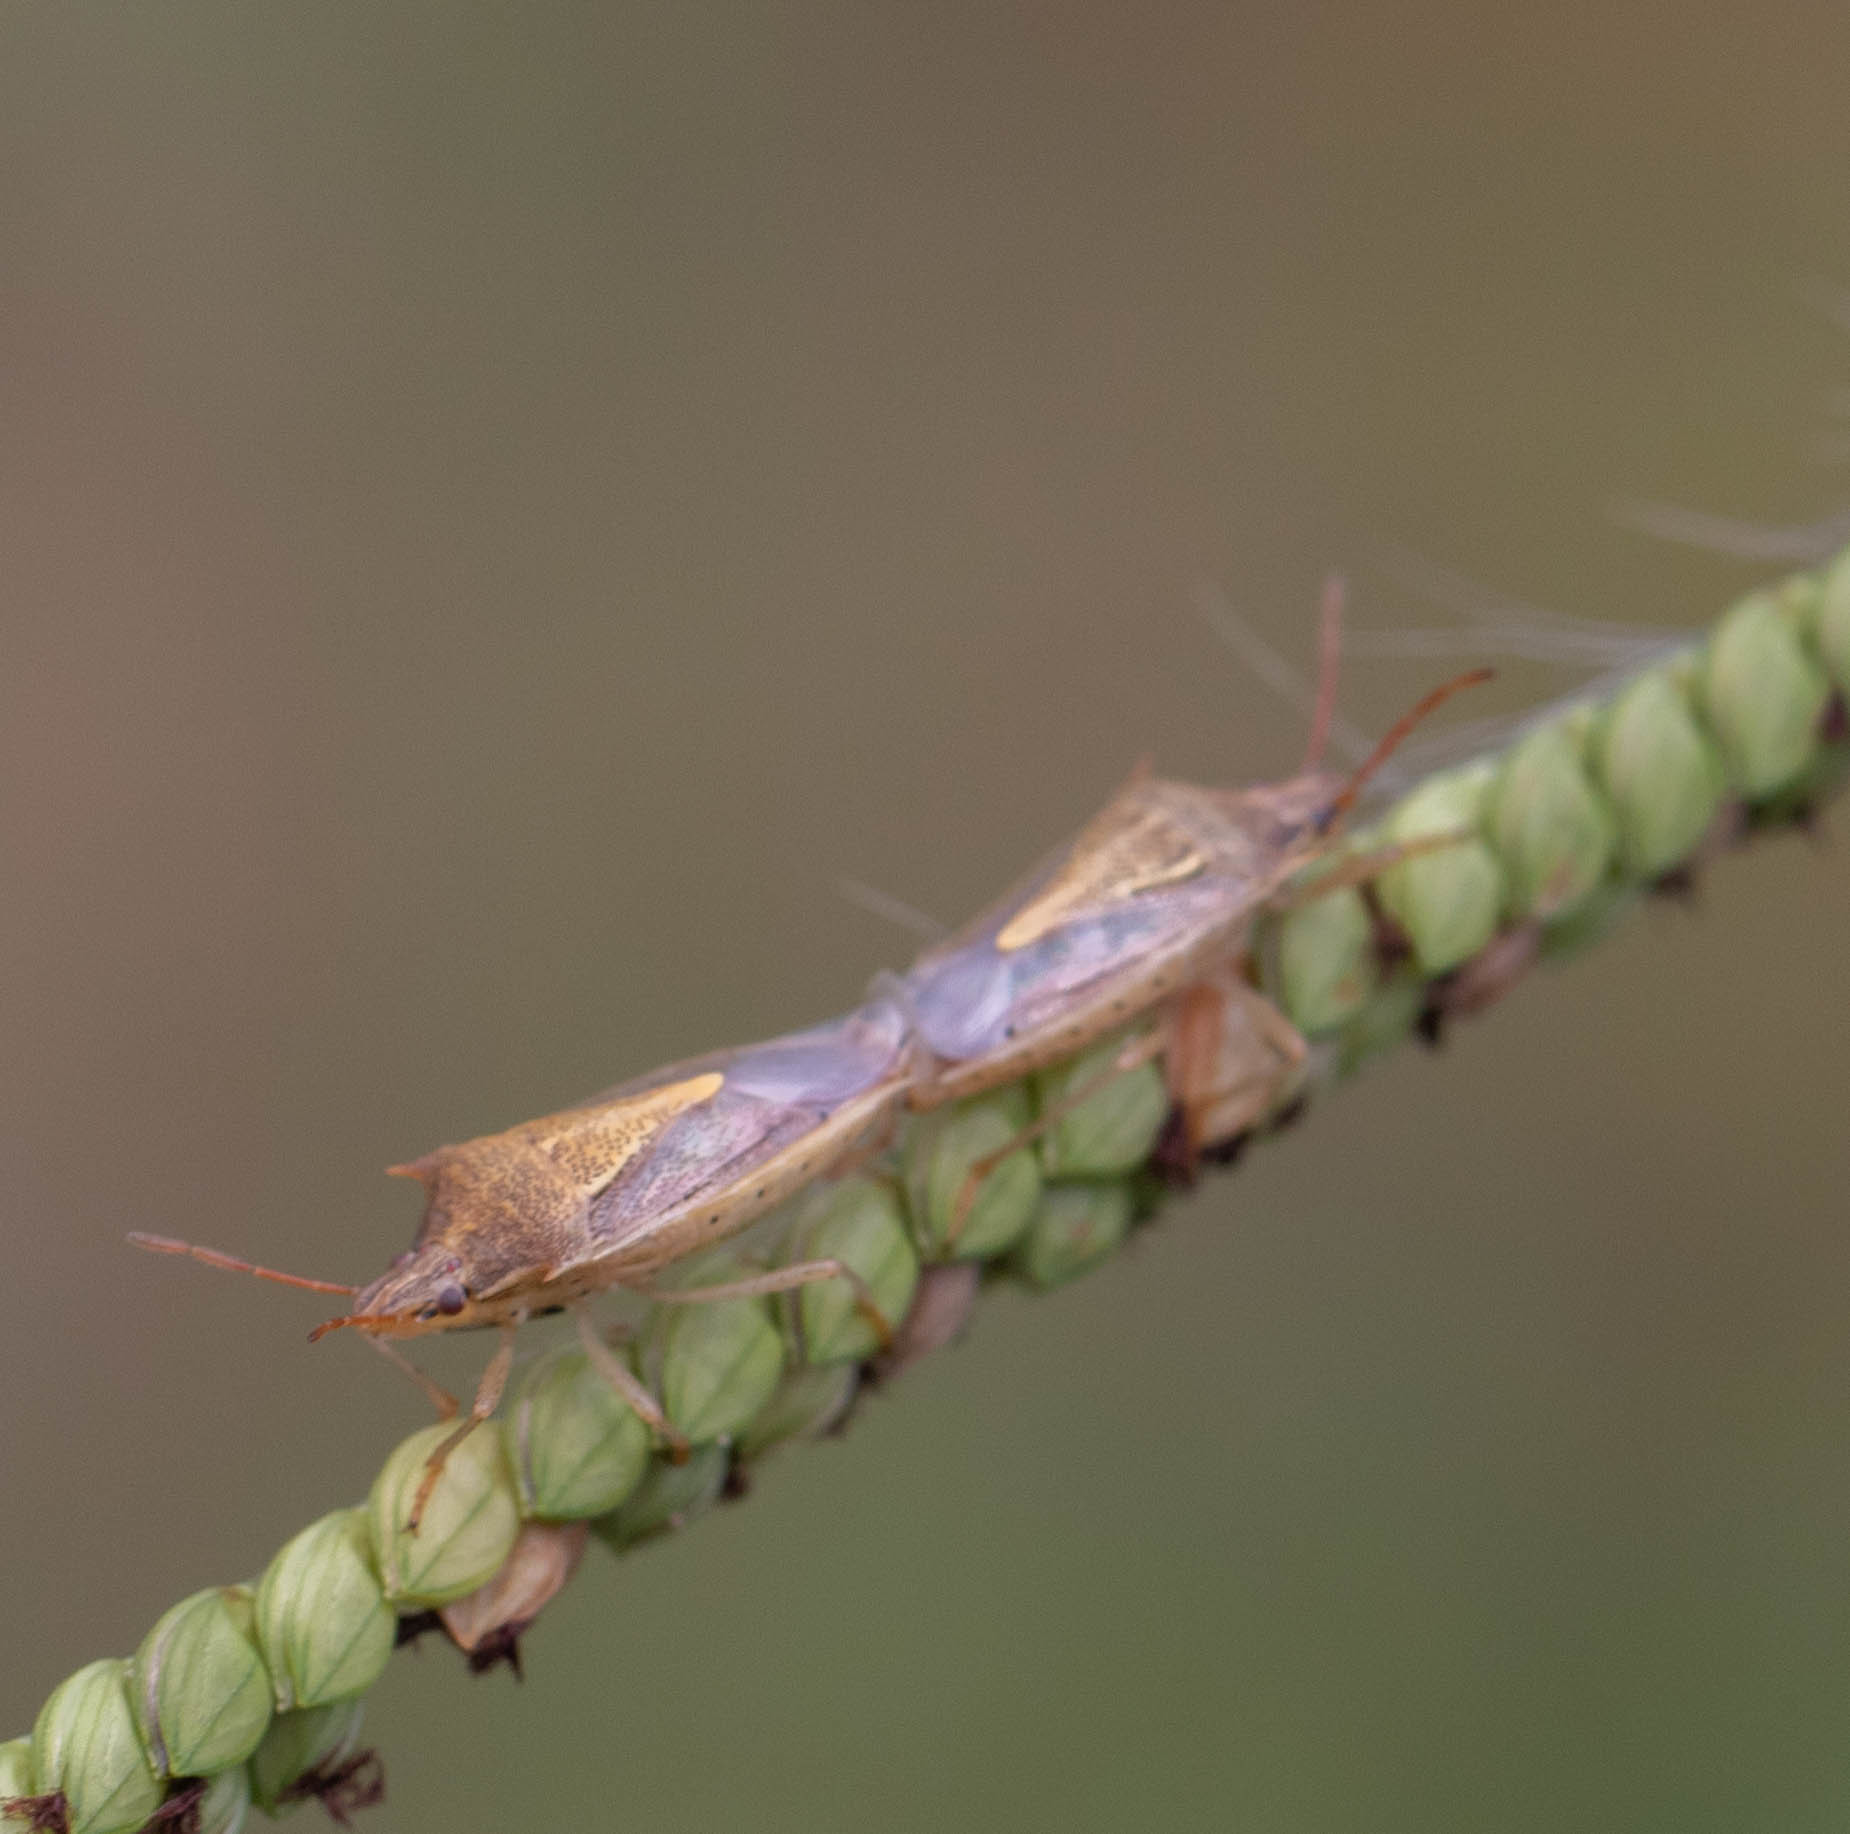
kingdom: Animalia
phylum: Arthropoda
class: Insecta
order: Hemiptera
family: Pentatomidae
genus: Oebalus
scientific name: Oebalus pugnax
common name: Rice stink bug
